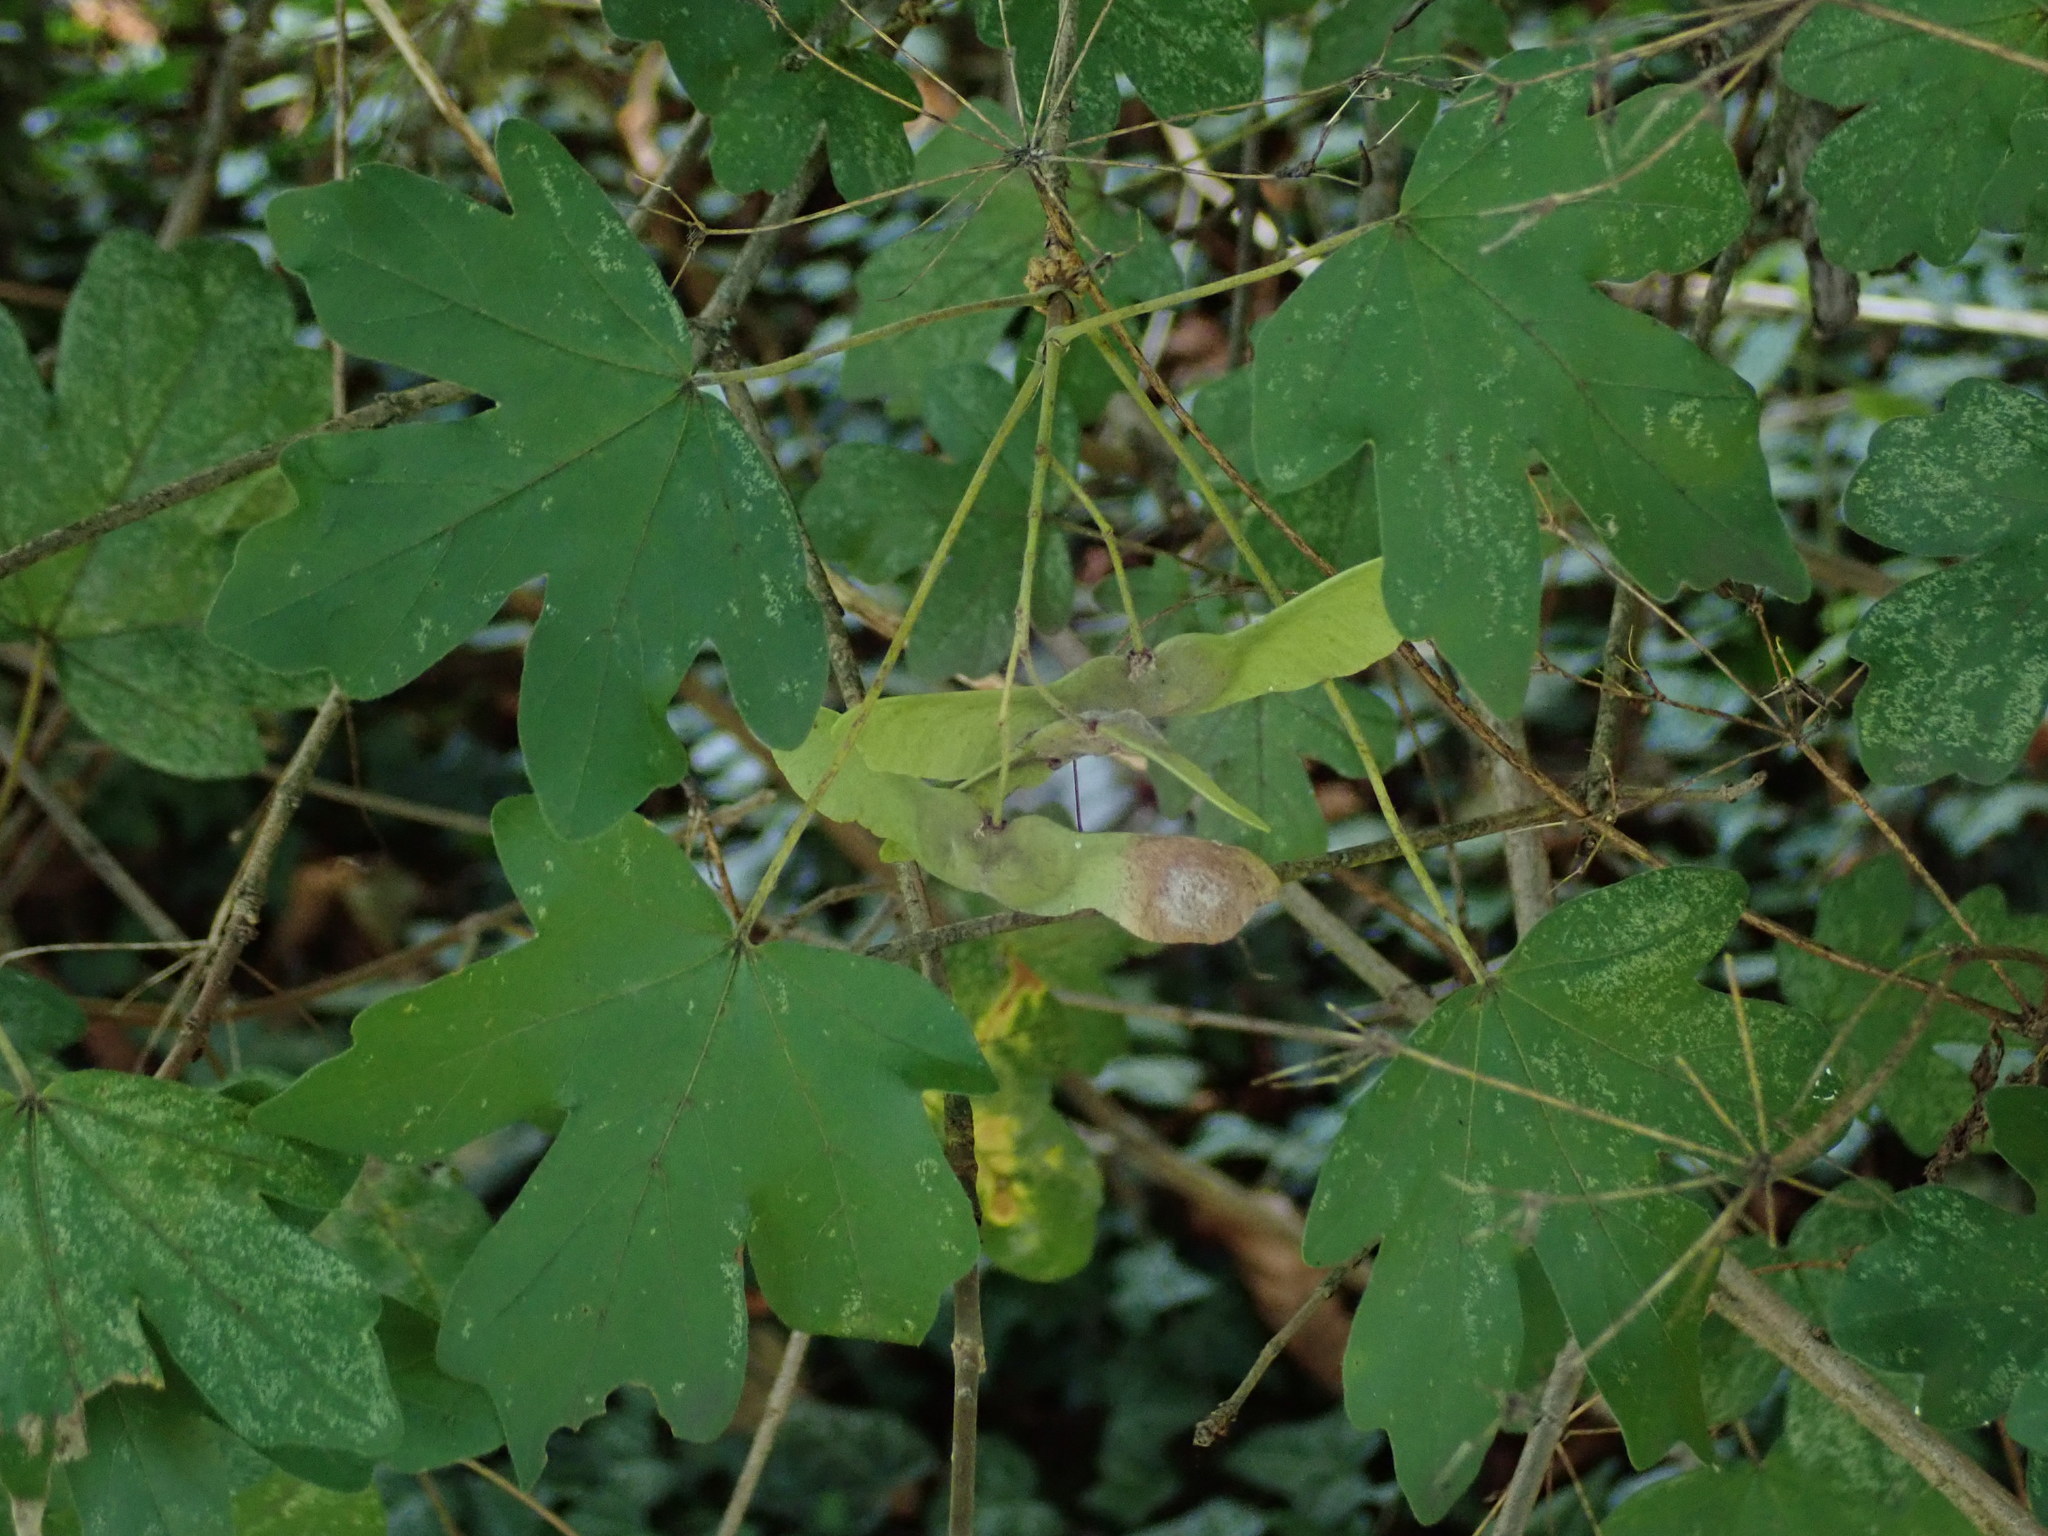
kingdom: Plantae
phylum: Tracheophyta
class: Magnoliopsida
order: Sapindales
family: Sapindaceae
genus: Acer
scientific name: Acer campestre
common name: Field maple
